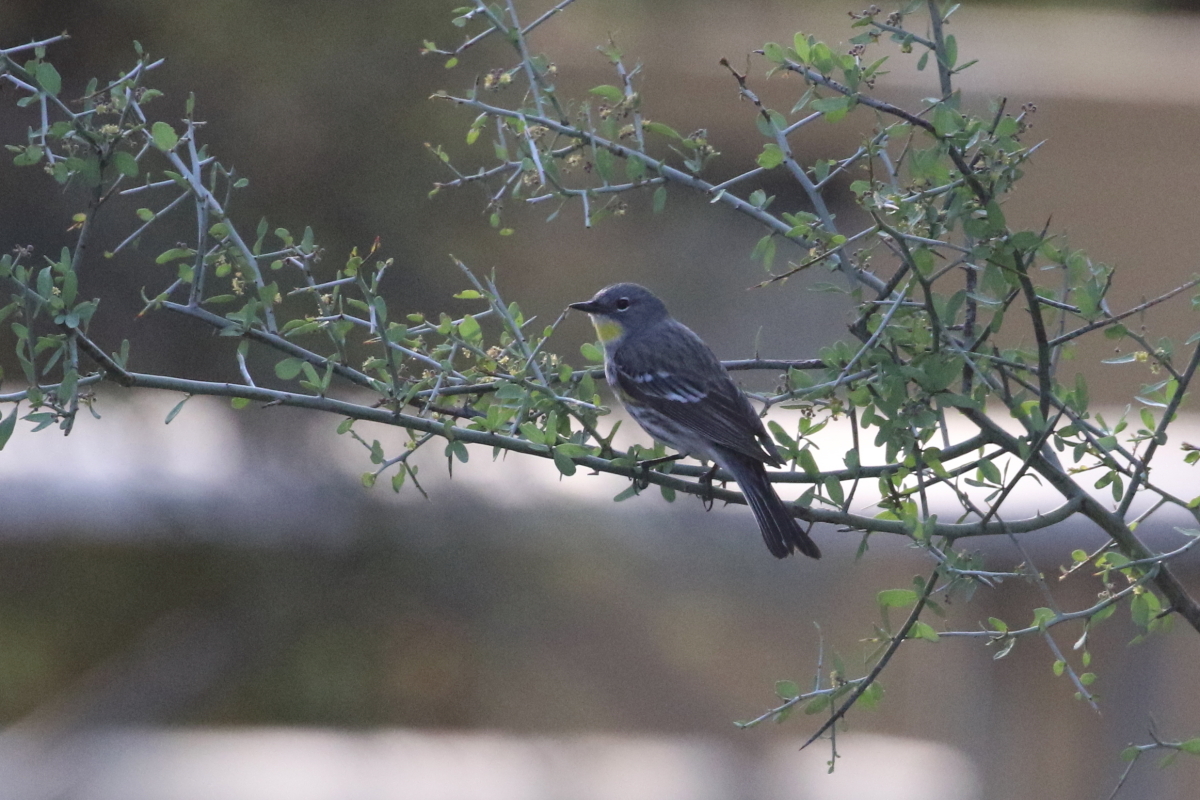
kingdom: Animalia
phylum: Chordata
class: Aves
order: Passeriformes
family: Parulidae
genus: Setophaga
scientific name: Setophaga coronata
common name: Myrtle warbler
